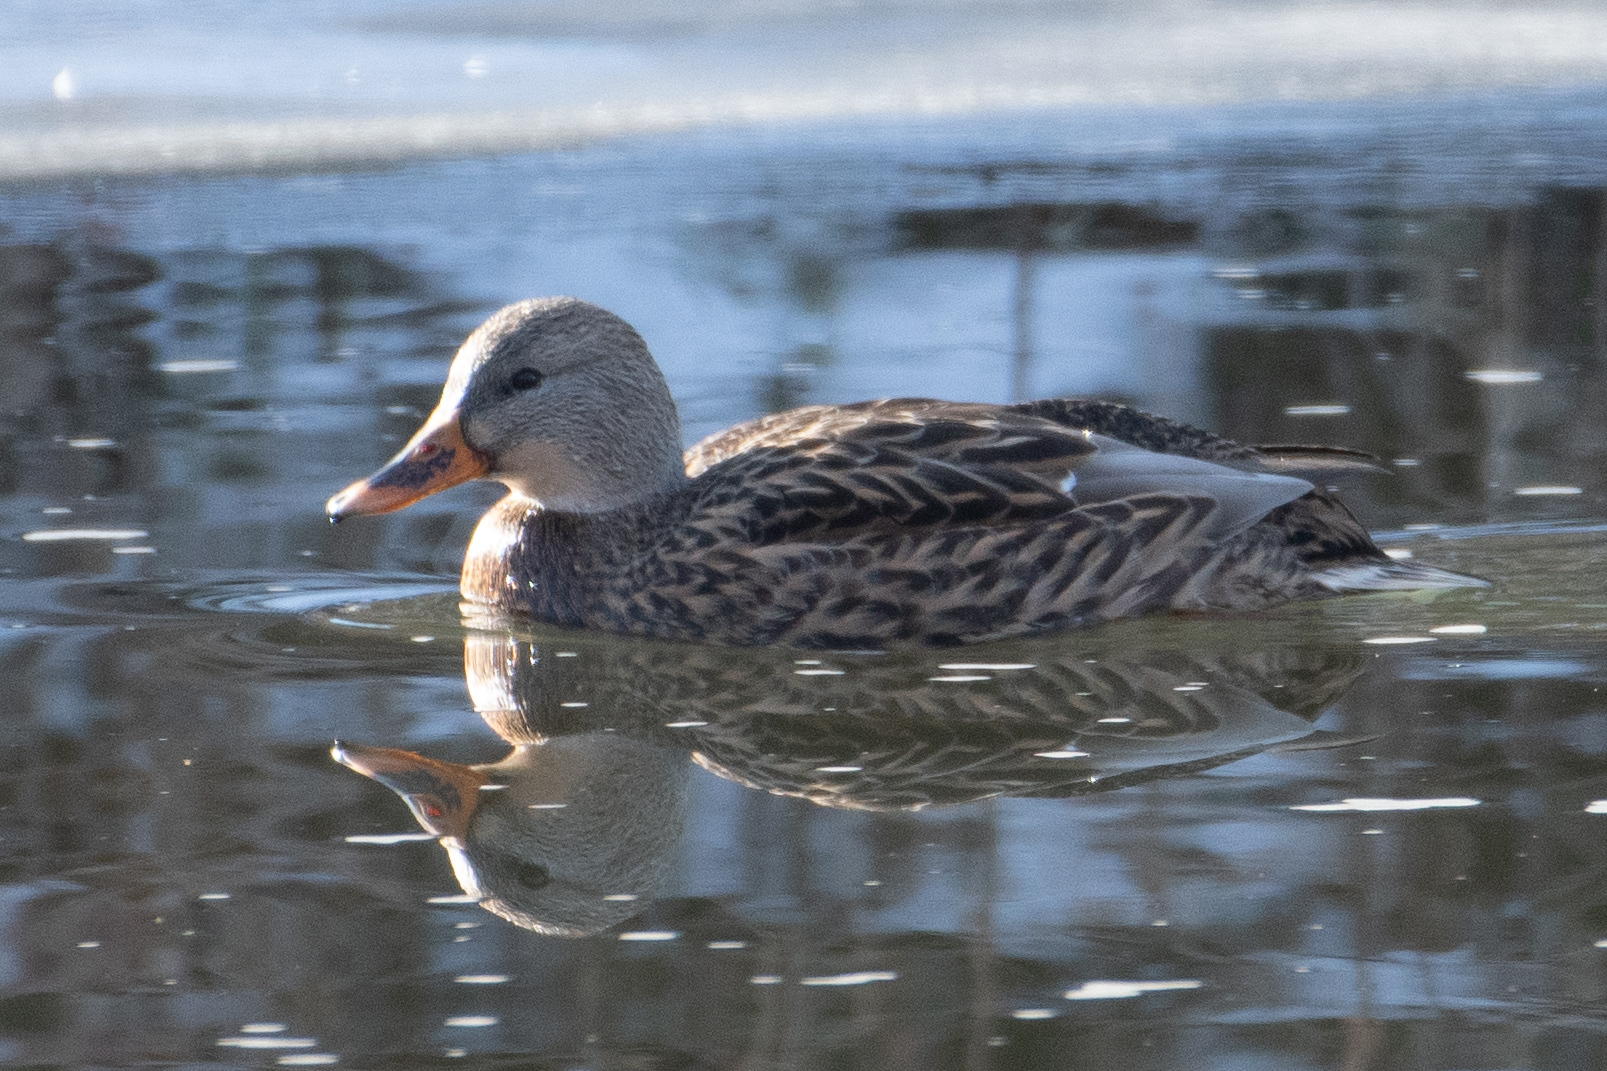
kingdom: Animalia
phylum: Chordata
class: Aves
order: Anseriformes
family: Anatidae
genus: Anas
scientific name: Anas platyrhynchos
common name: Mallard
